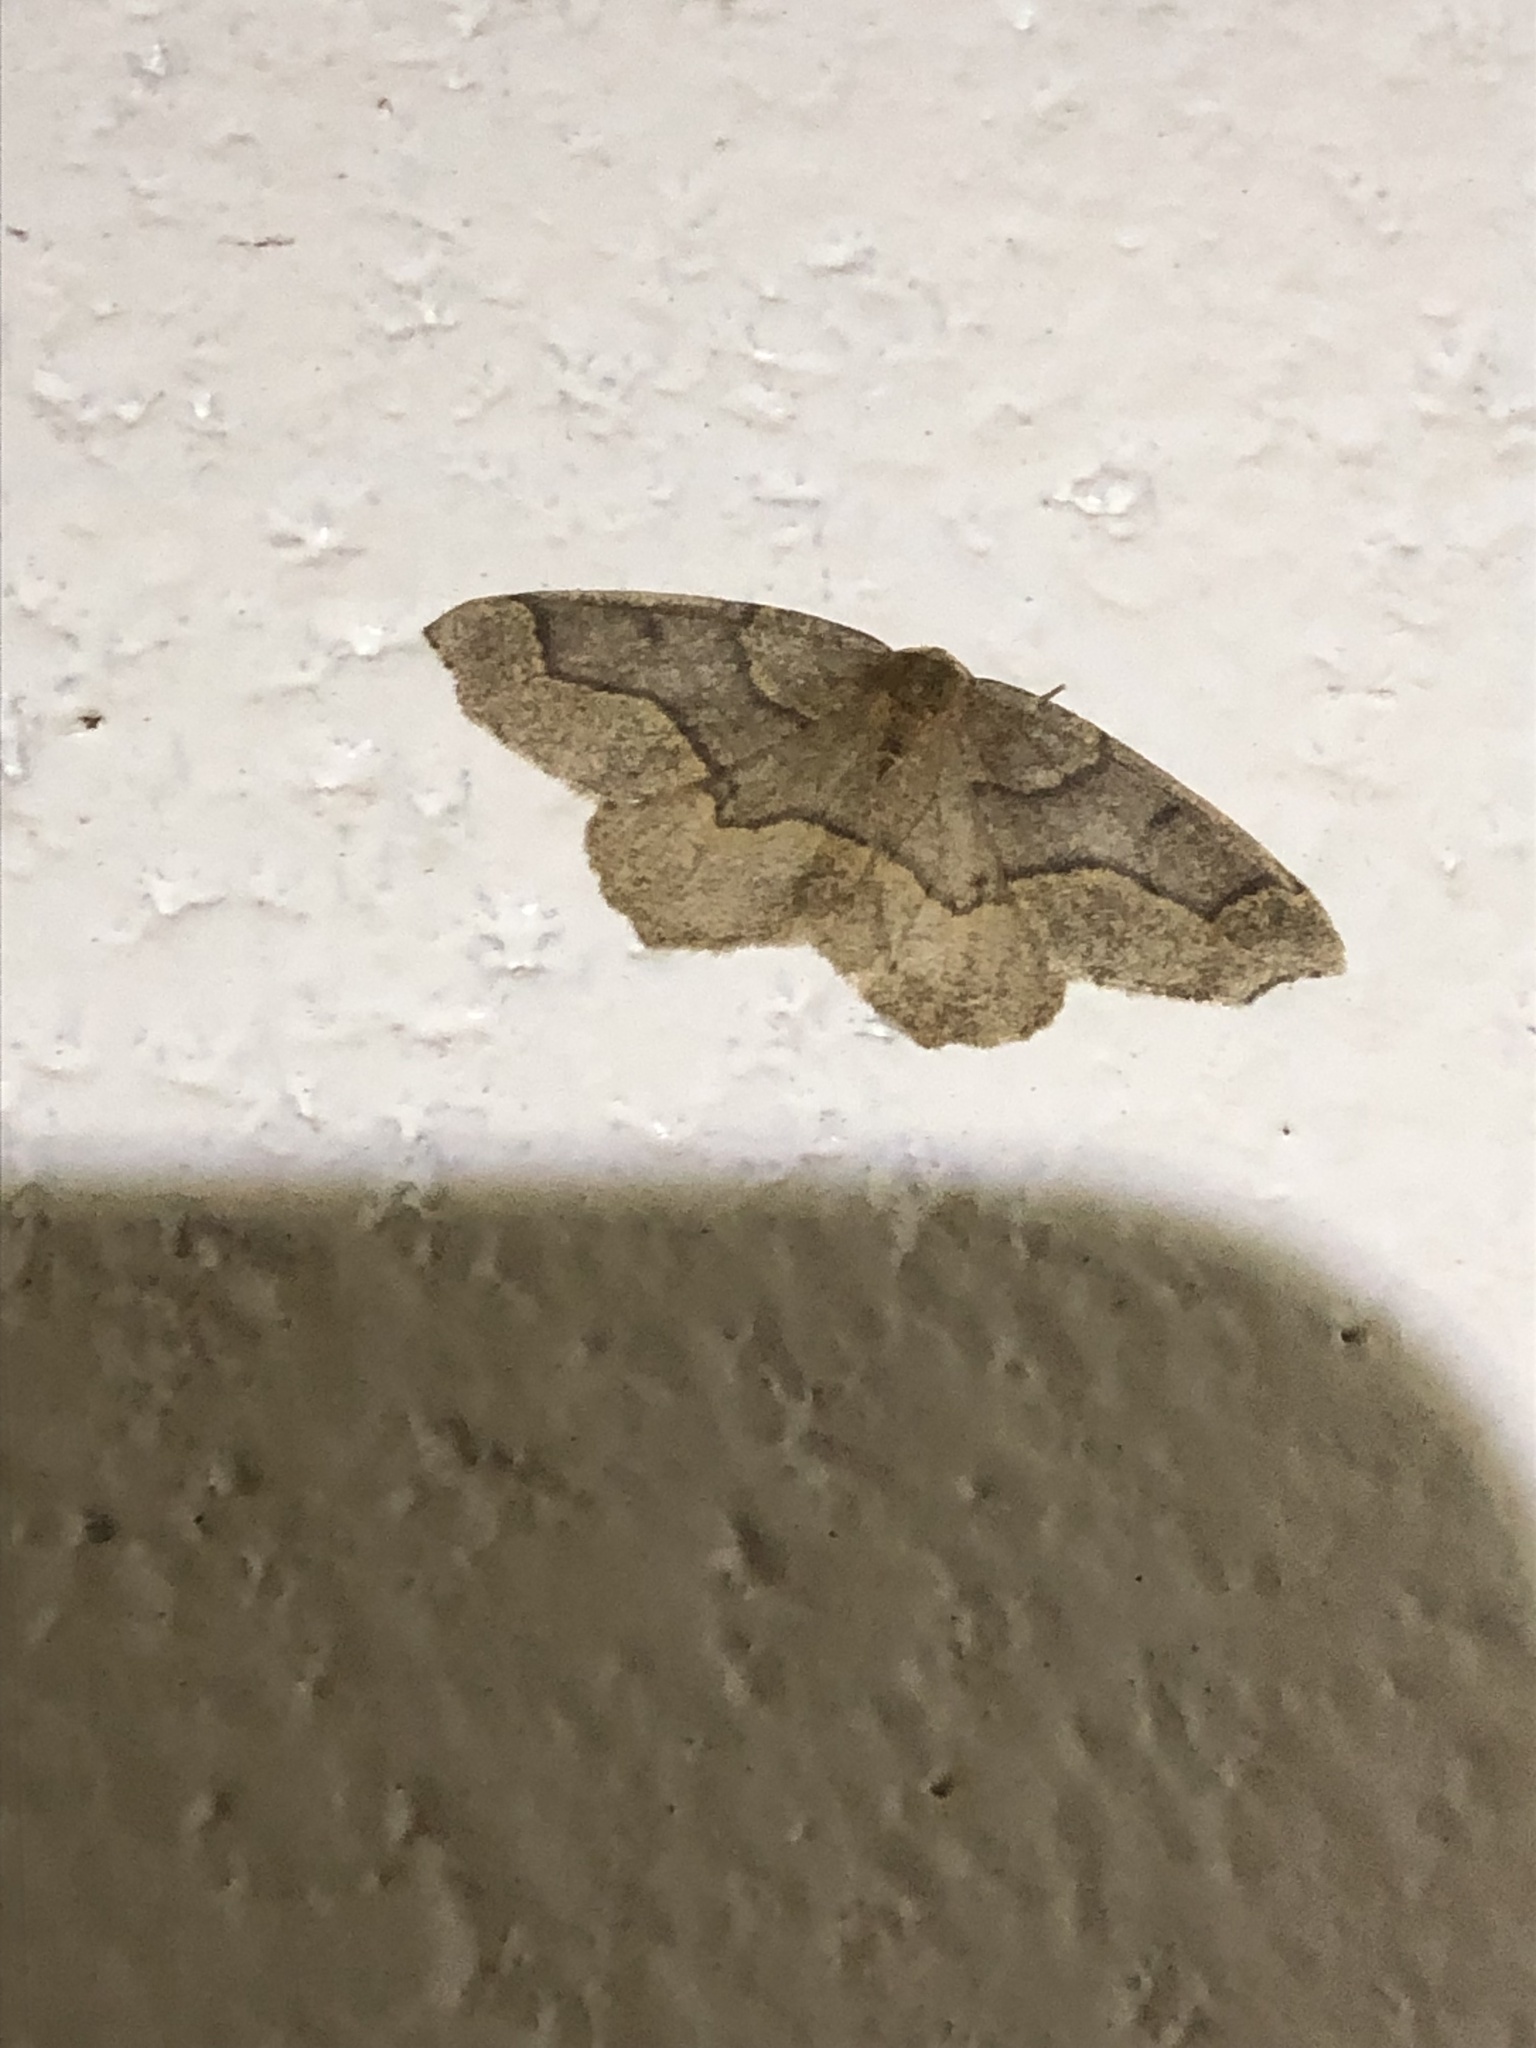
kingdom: Animalia
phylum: Arthropoda
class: Insecta
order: Lepidoptera
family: Geometridae
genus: Lambdina
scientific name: Lambdina fiscellaria
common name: Hemlock looper
